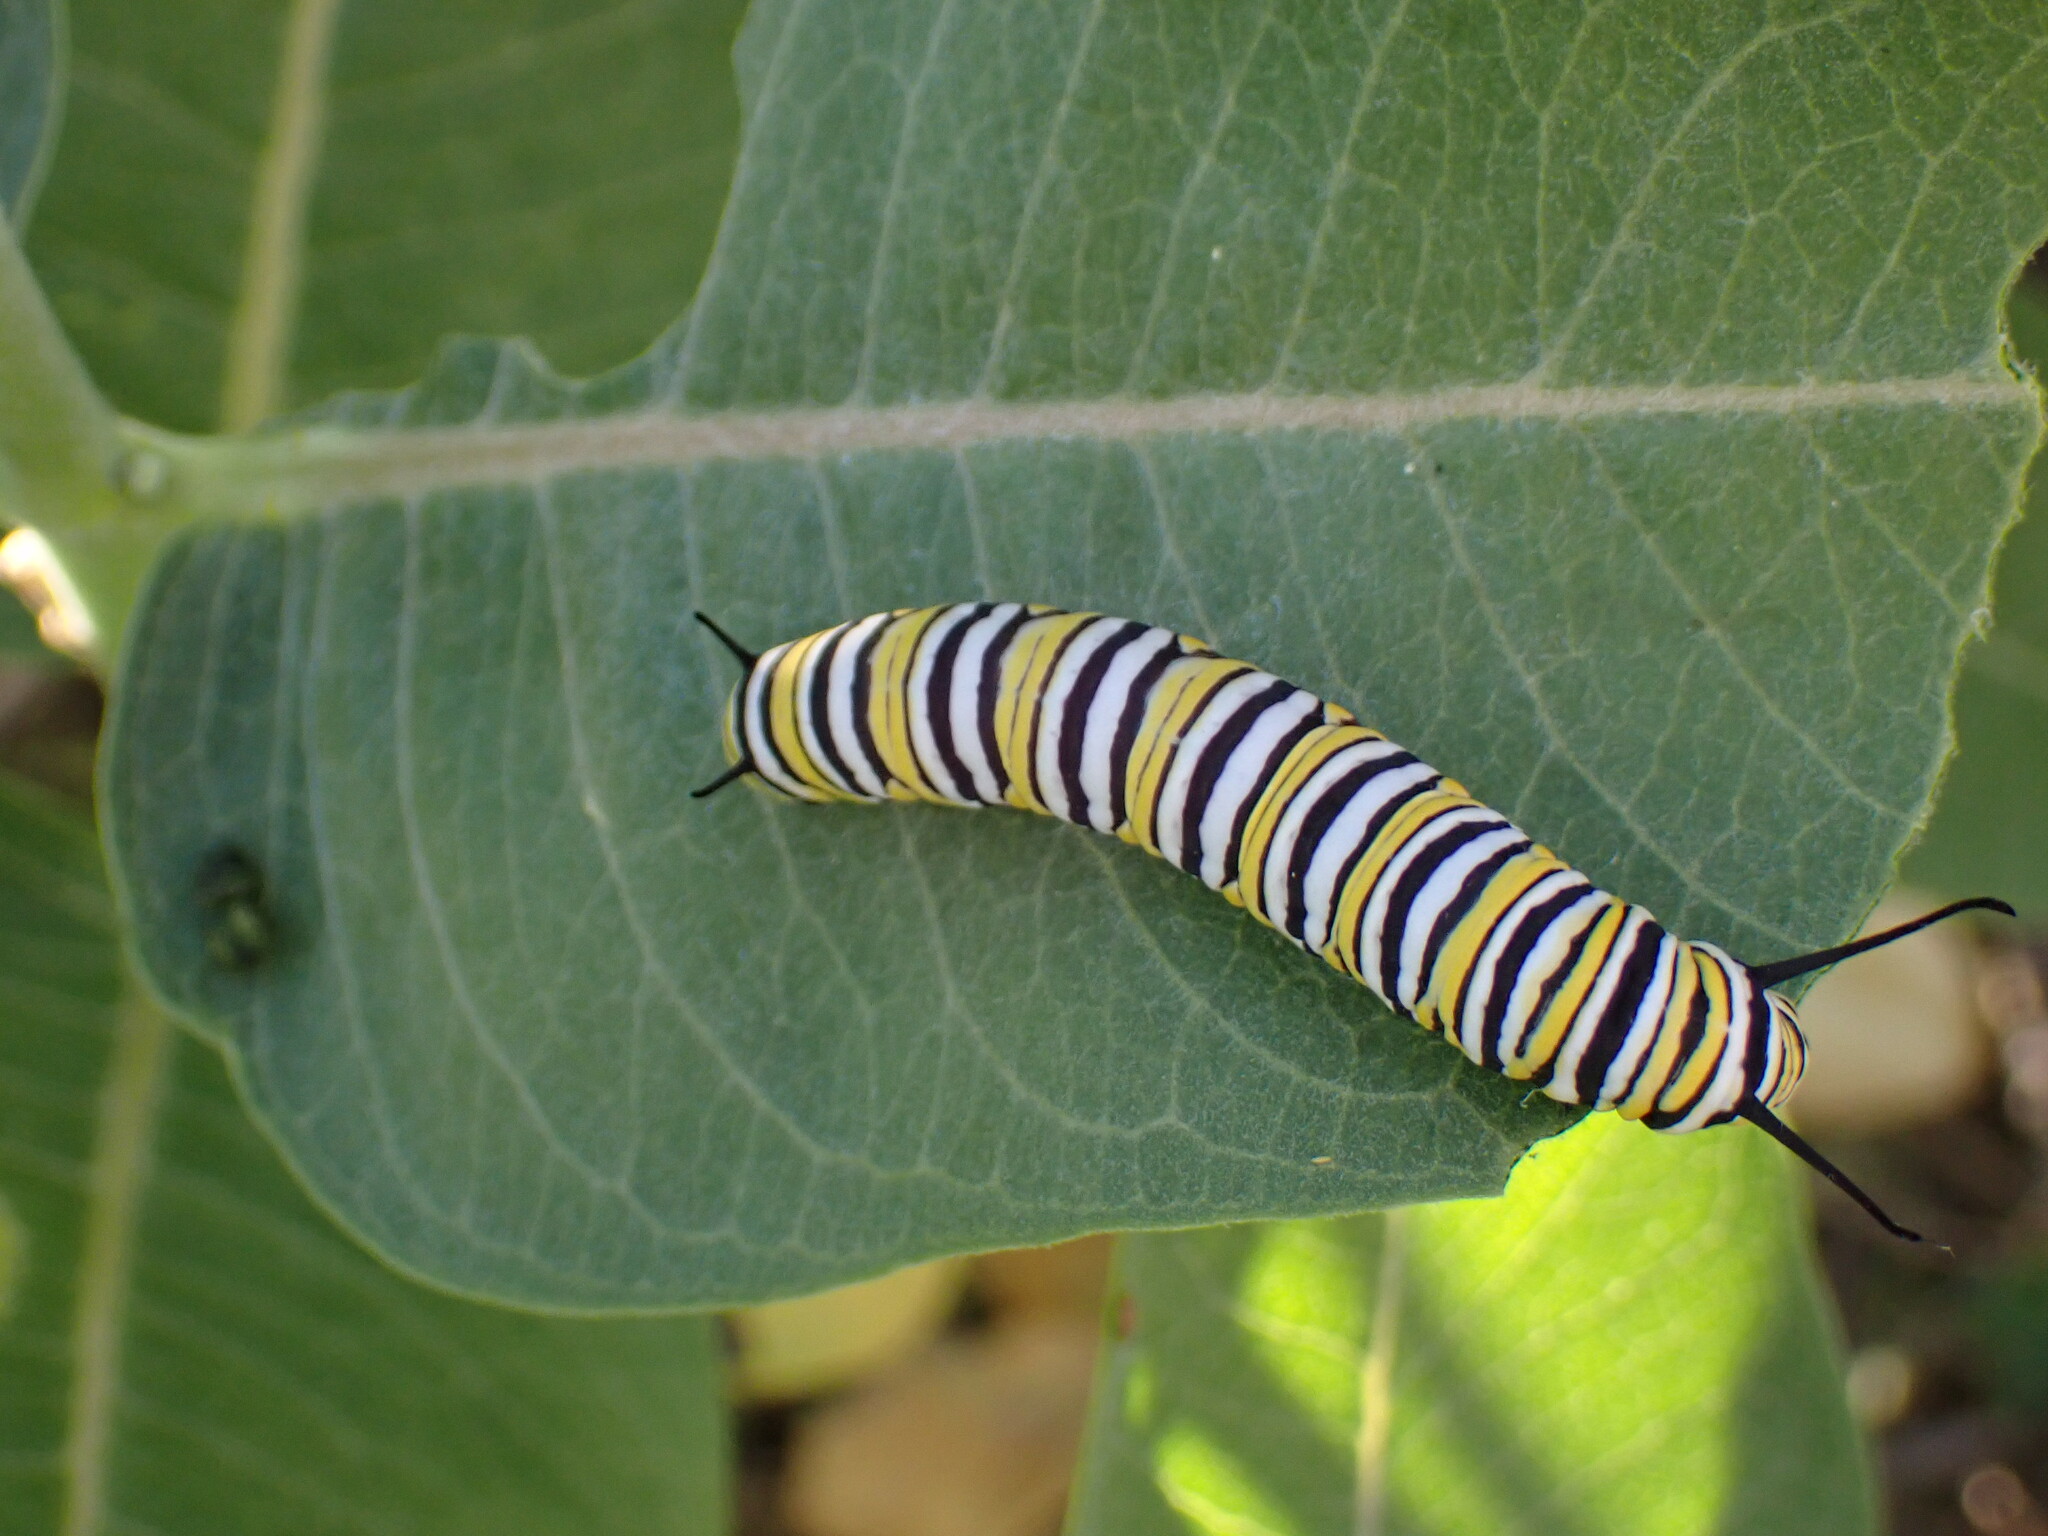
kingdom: Animalia
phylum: Arthropoda
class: Insecta
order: Lepidoptera
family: Nymphalidae
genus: Danaus
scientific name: Danaus plexippus
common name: Monarch
